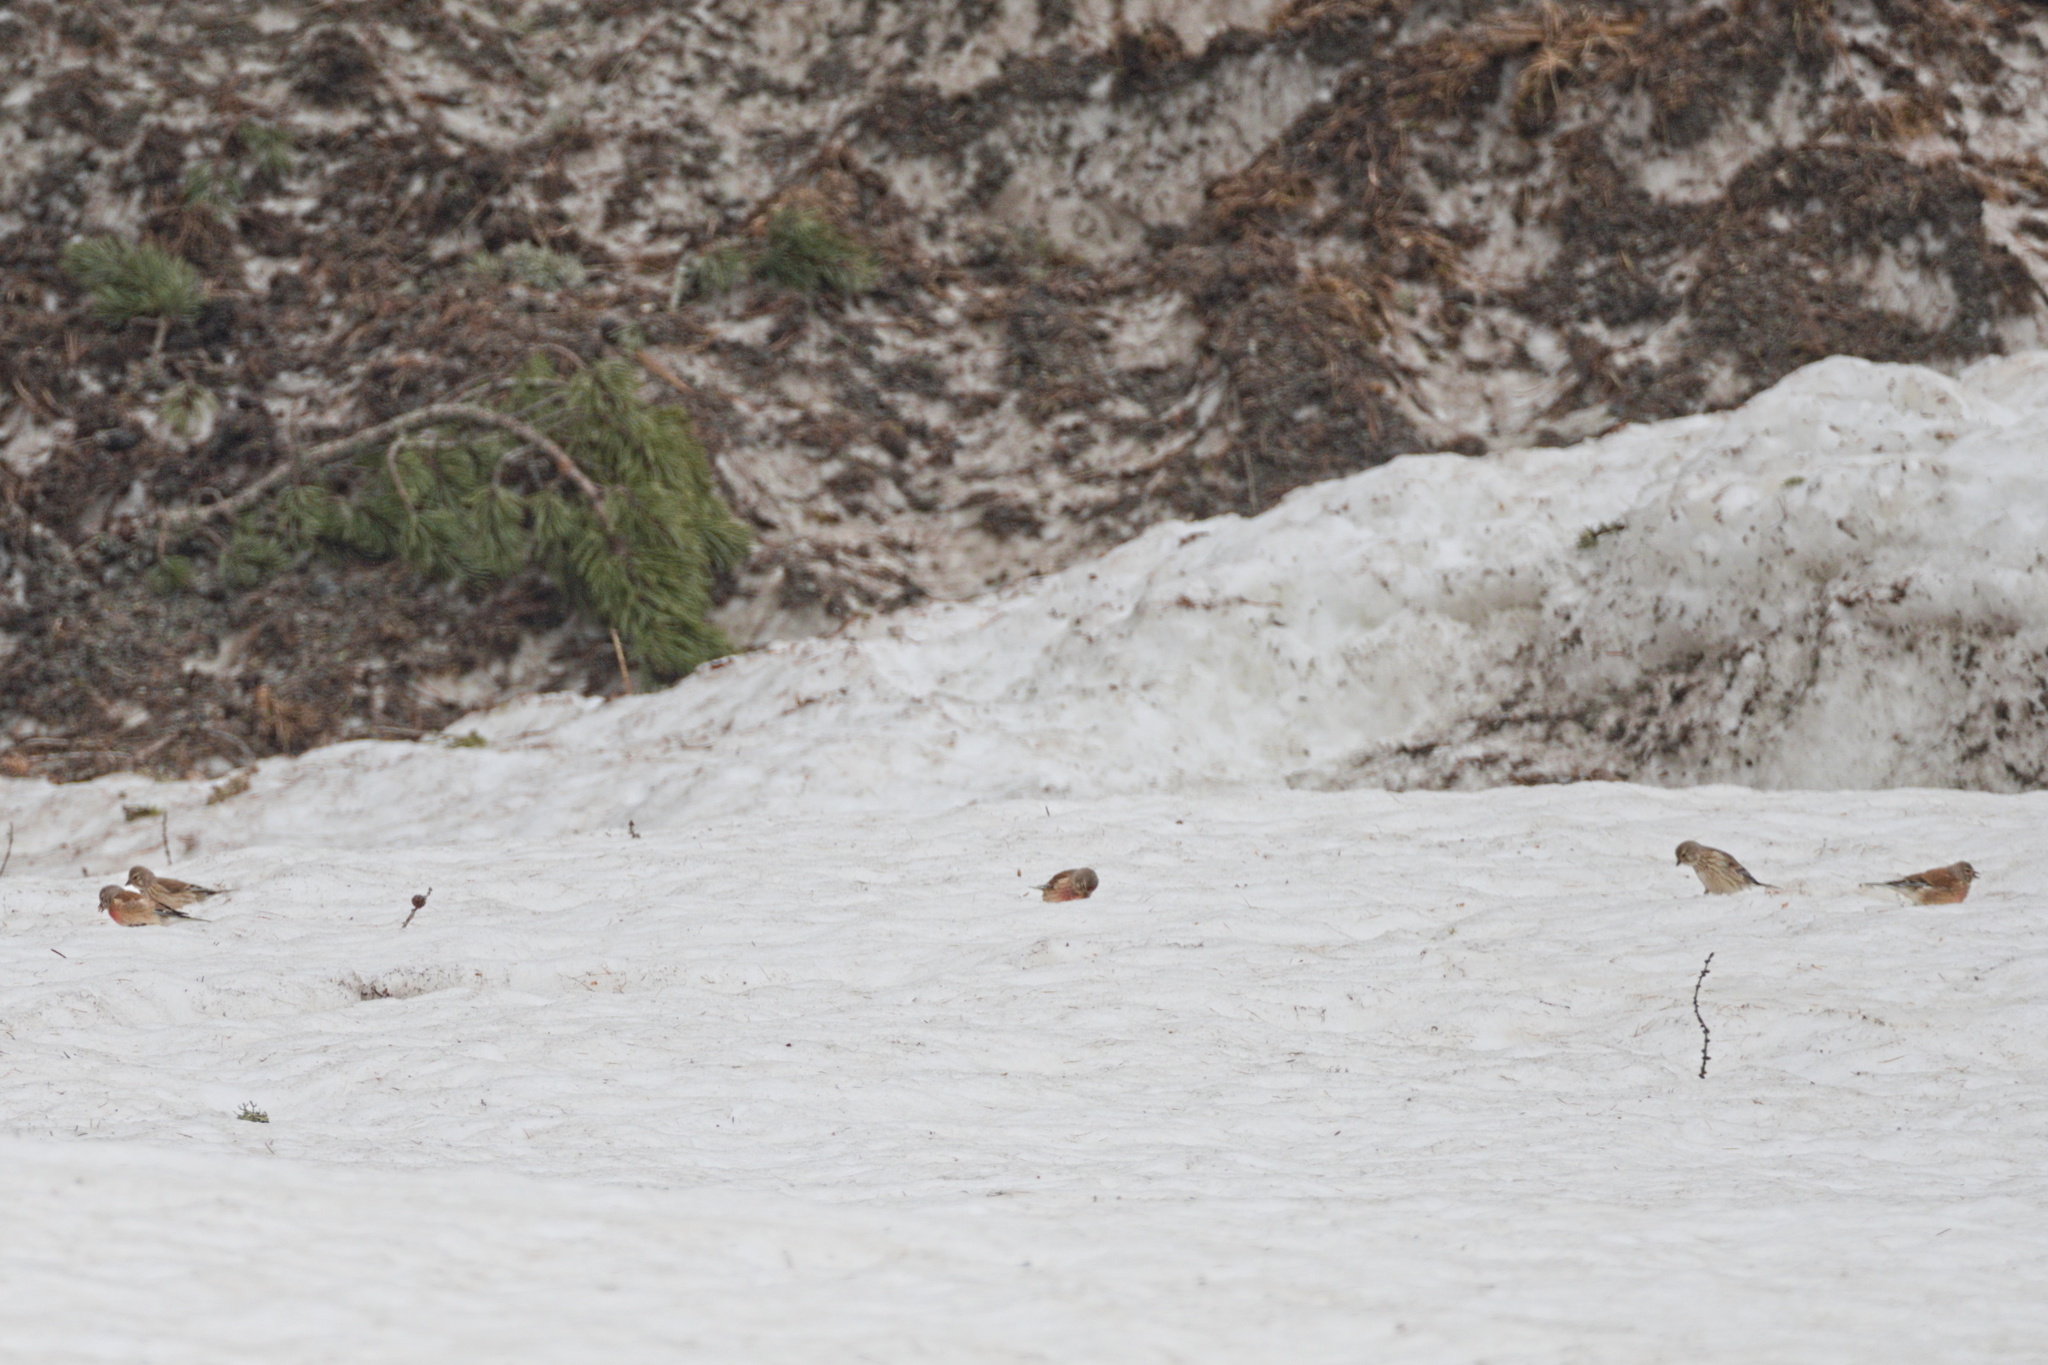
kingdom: Animalia
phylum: Chordata
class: Aves
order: Passeriformes
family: Fringillidae
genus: Linaria
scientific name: Linaria cannabina
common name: Common linnet
